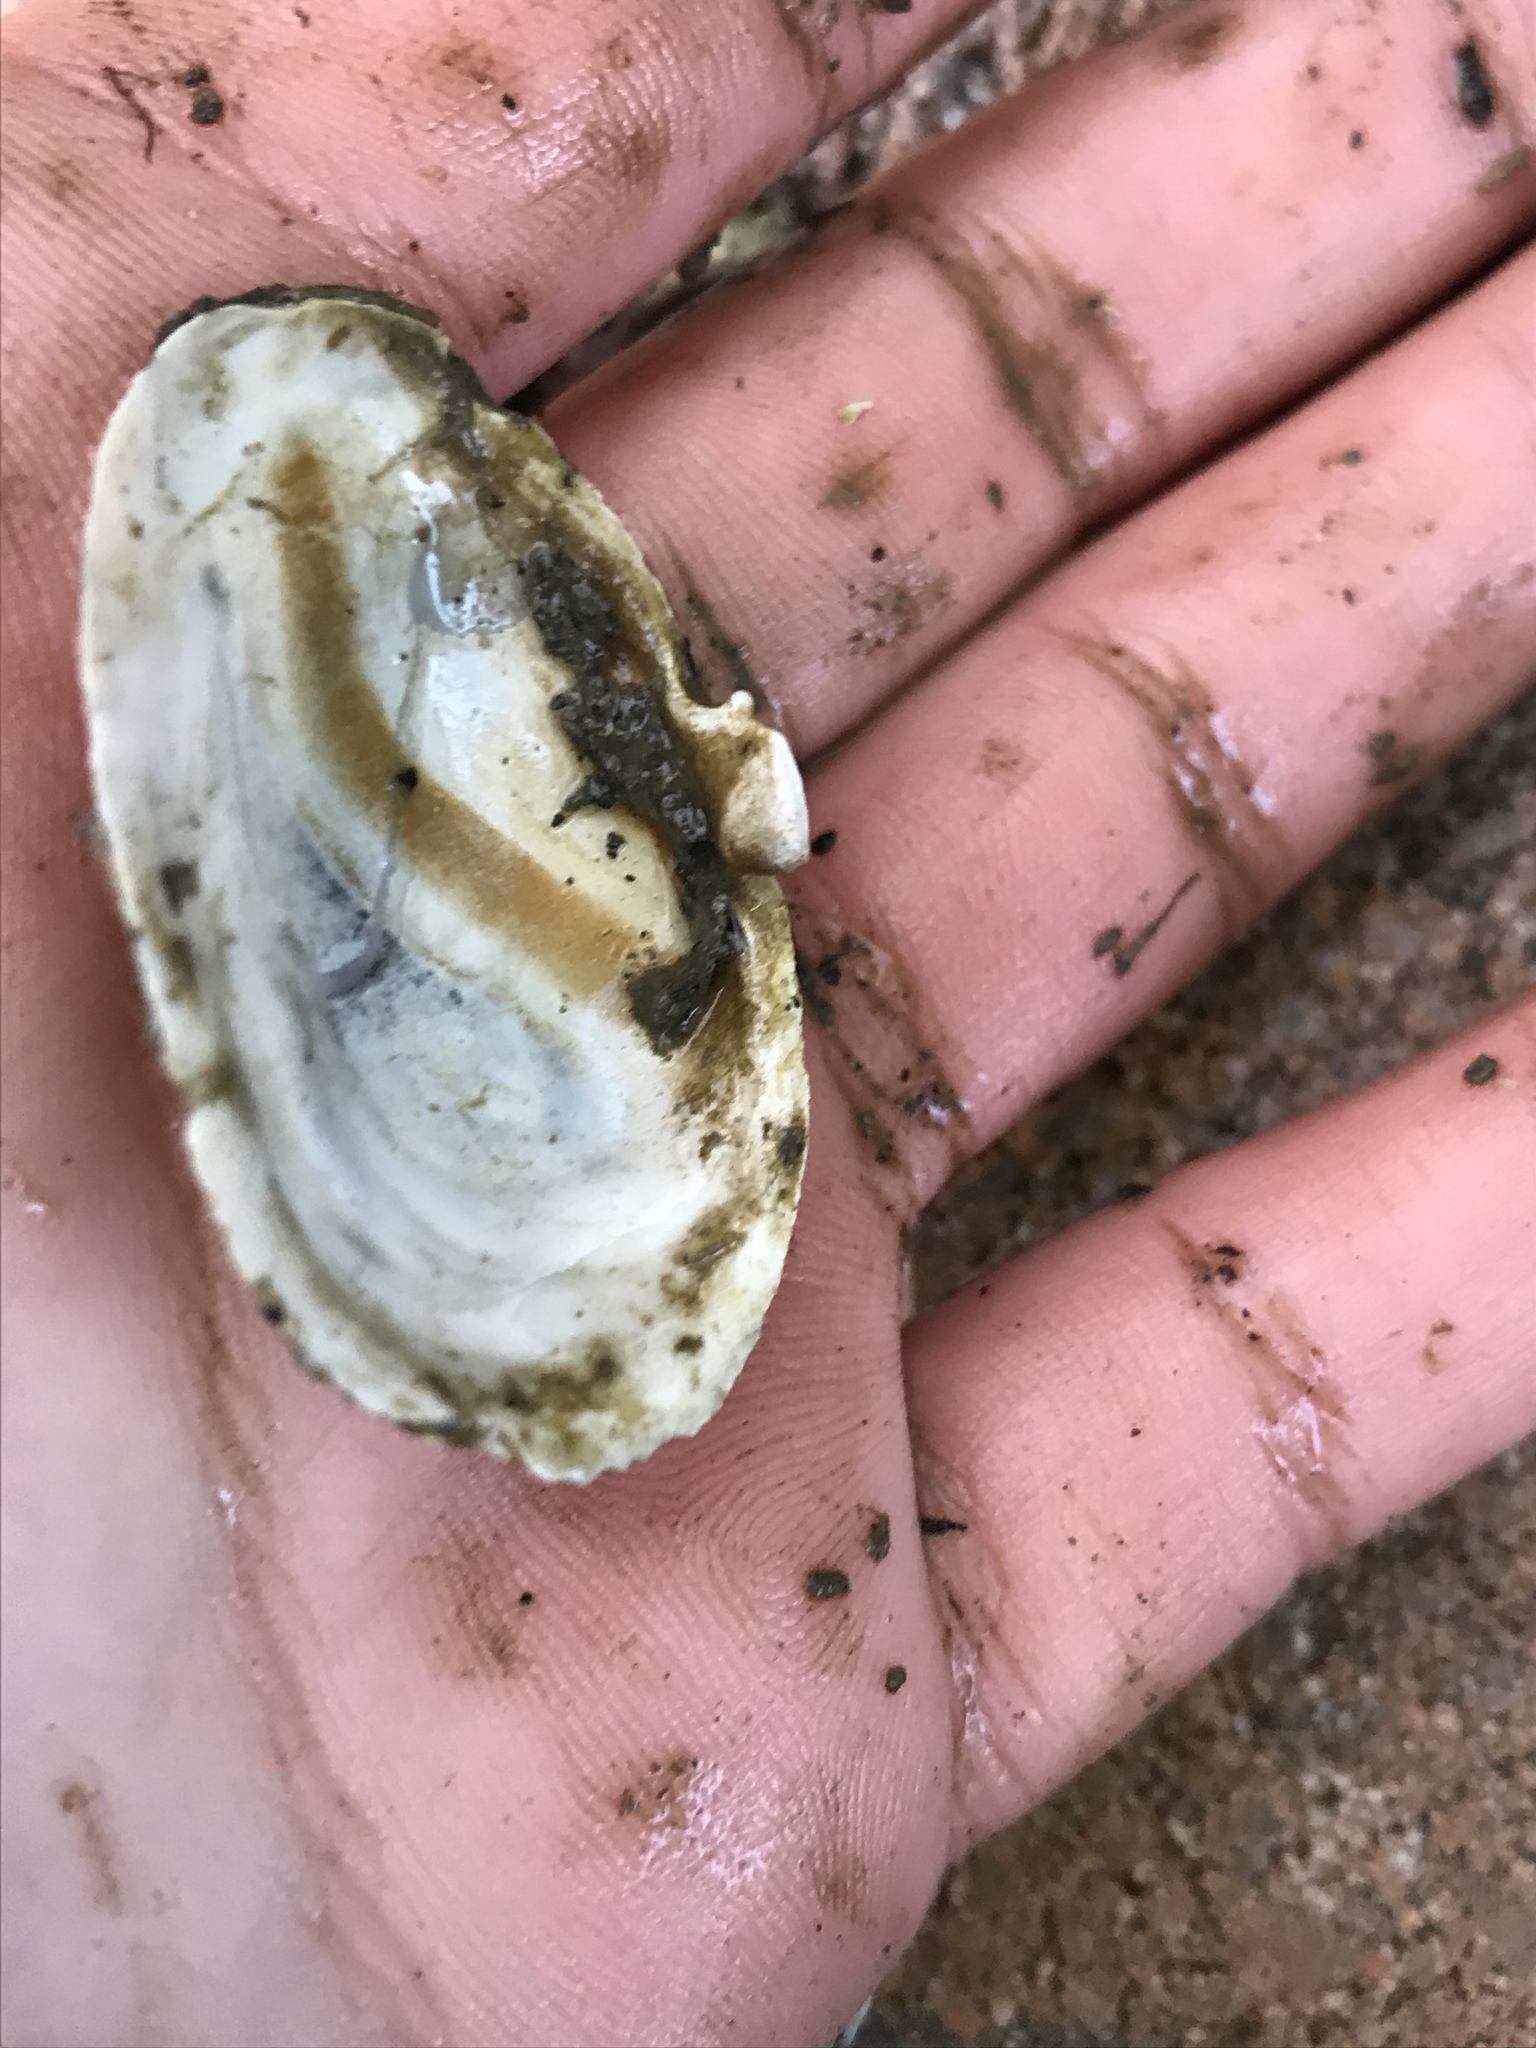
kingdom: Animalia
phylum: Mollusca
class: Bivalvia
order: Myida
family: Myidae
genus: Mya
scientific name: Mya arenaria
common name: Soft-shelled clam
